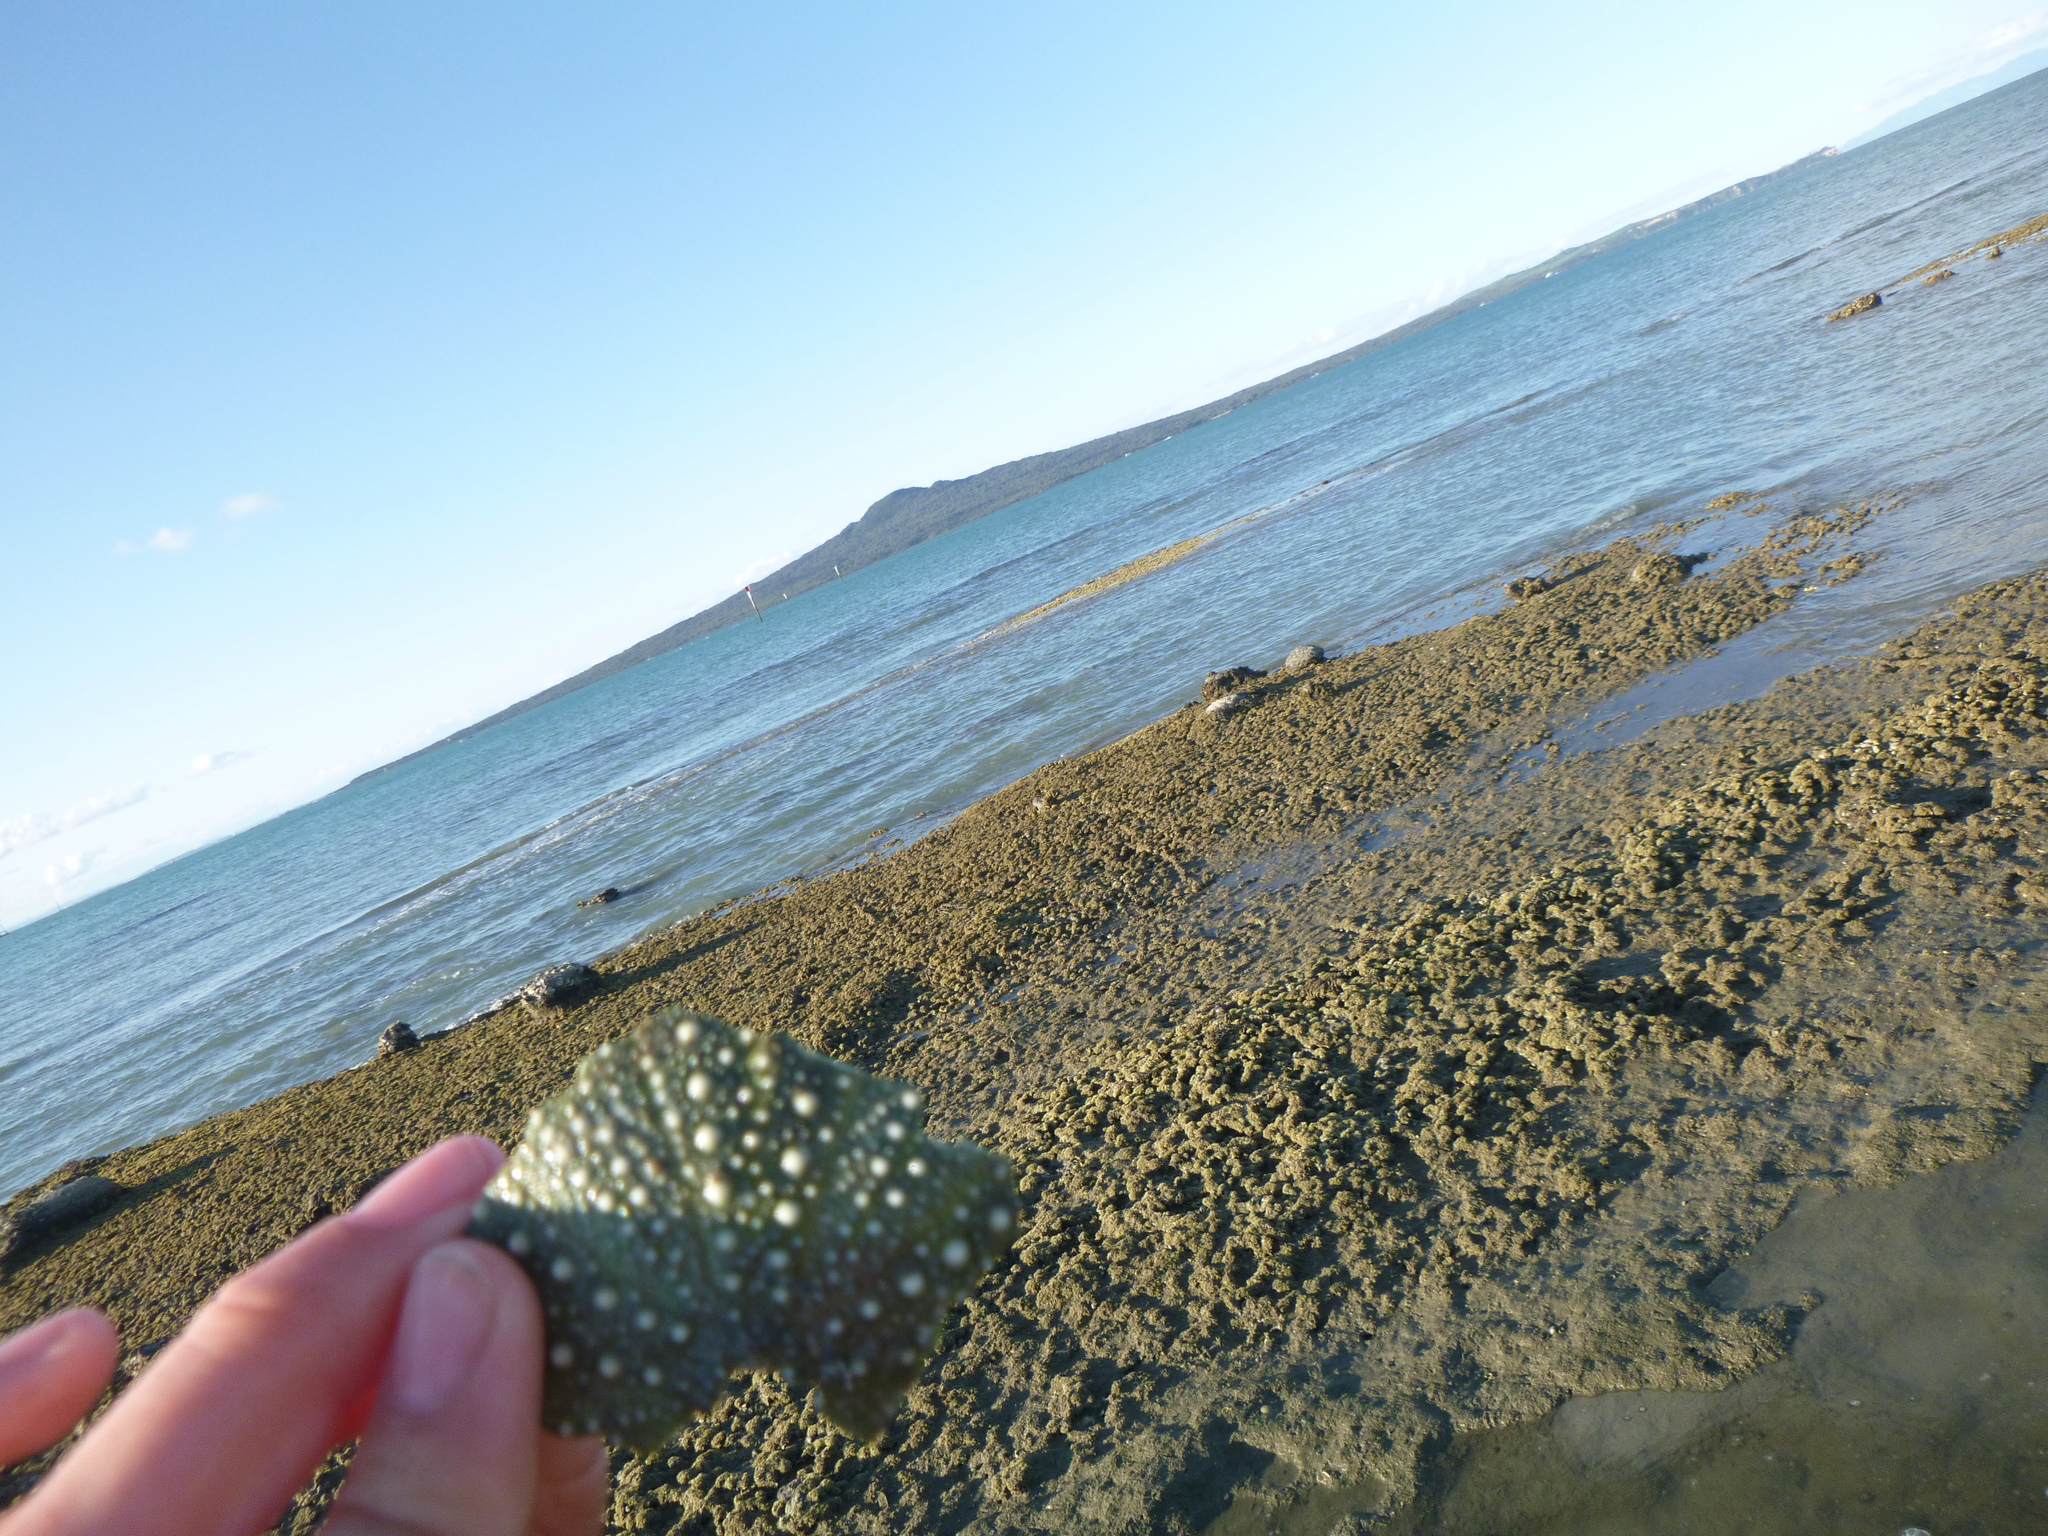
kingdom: Animalia
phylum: Echinodermata
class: Echinoidea
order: Camarodonta
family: Echinometridae
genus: Evechinus
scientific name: Evechinus chloroticus
